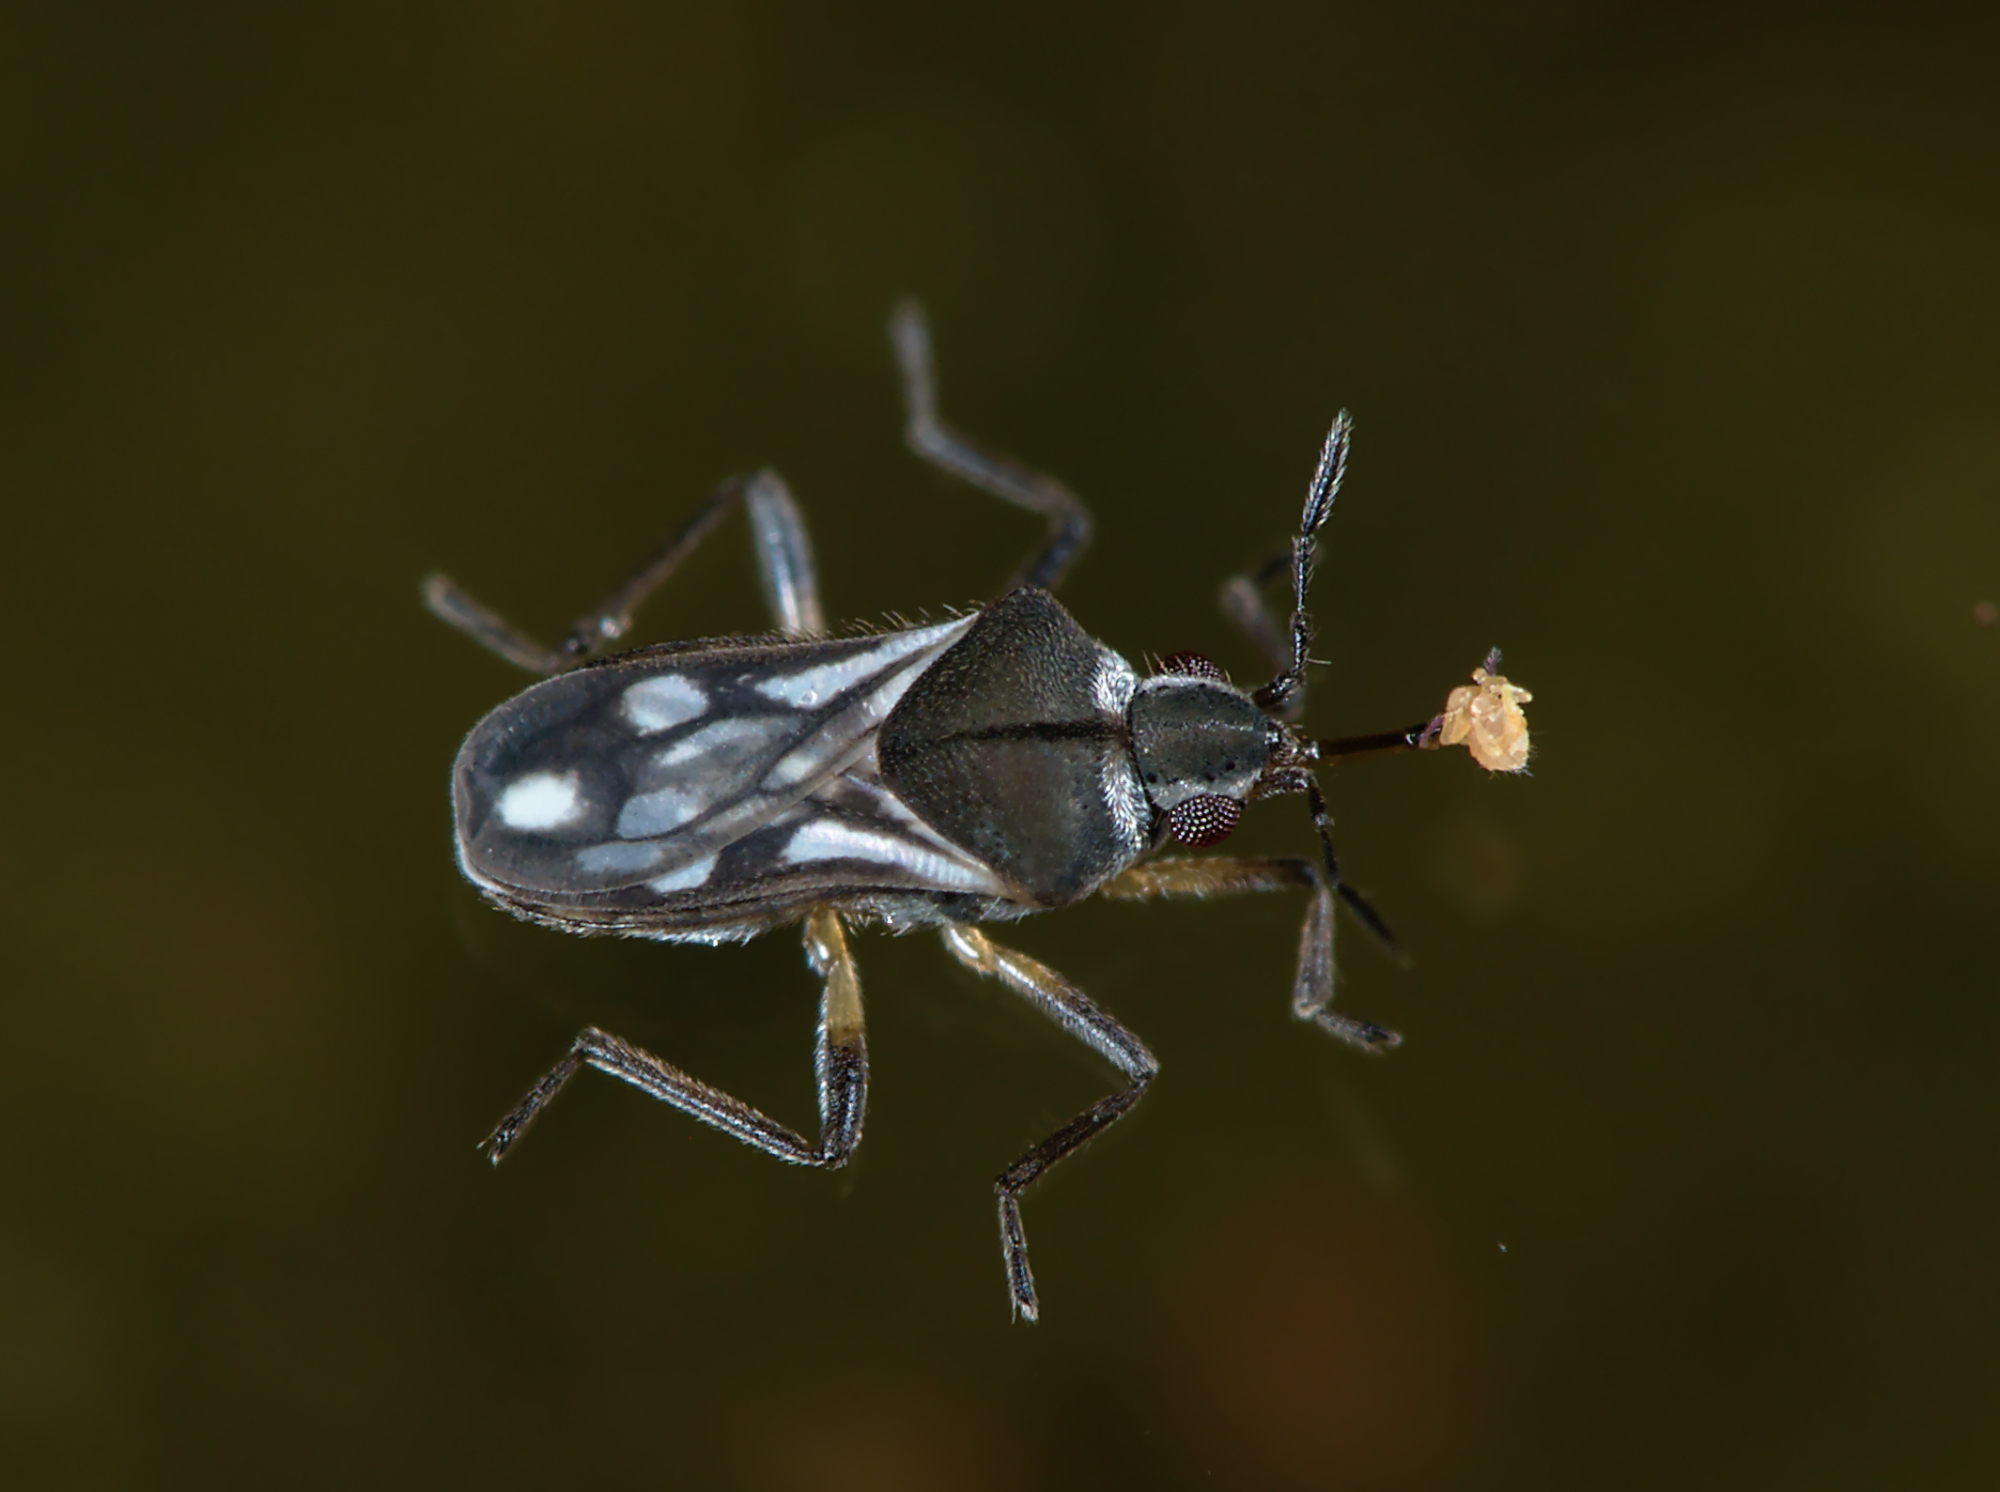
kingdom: Animalia
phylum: Arthropoda
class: Insecta
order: Hemiptera
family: Veliidae
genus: Microvelia
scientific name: Microvelia reticulata
